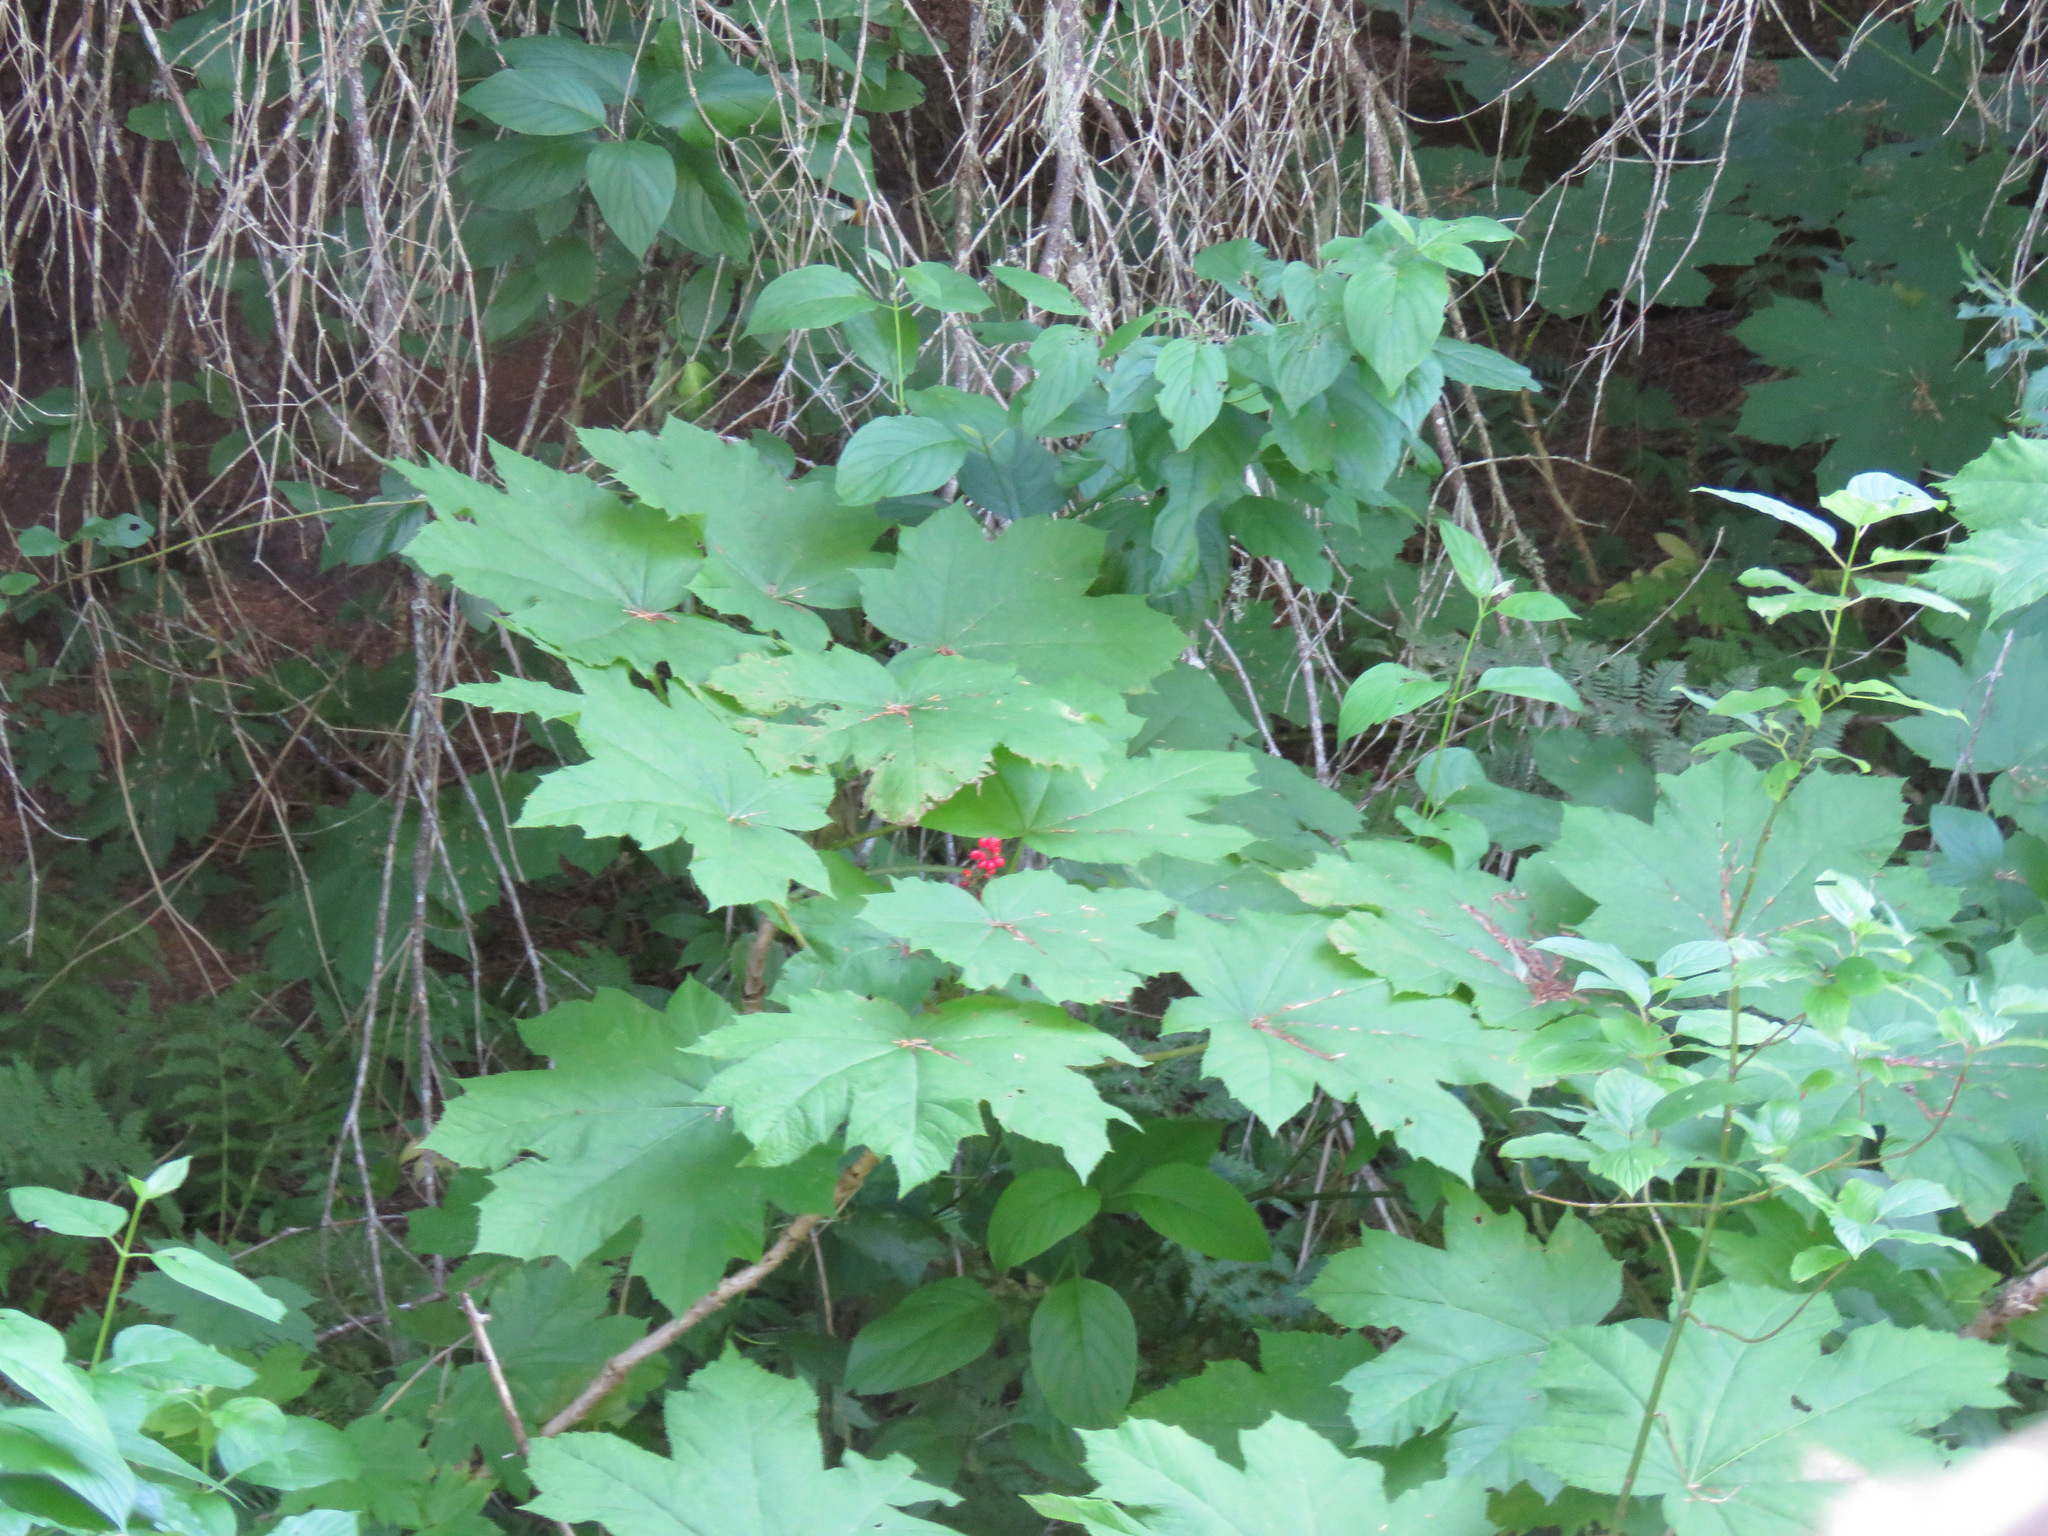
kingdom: Plantae
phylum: Tracheophyta
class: Magnoliopsida
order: Apiales
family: Araliaceae
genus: Oplopanax
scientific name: Oplopanax horridus
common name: Devil's walking-stick
